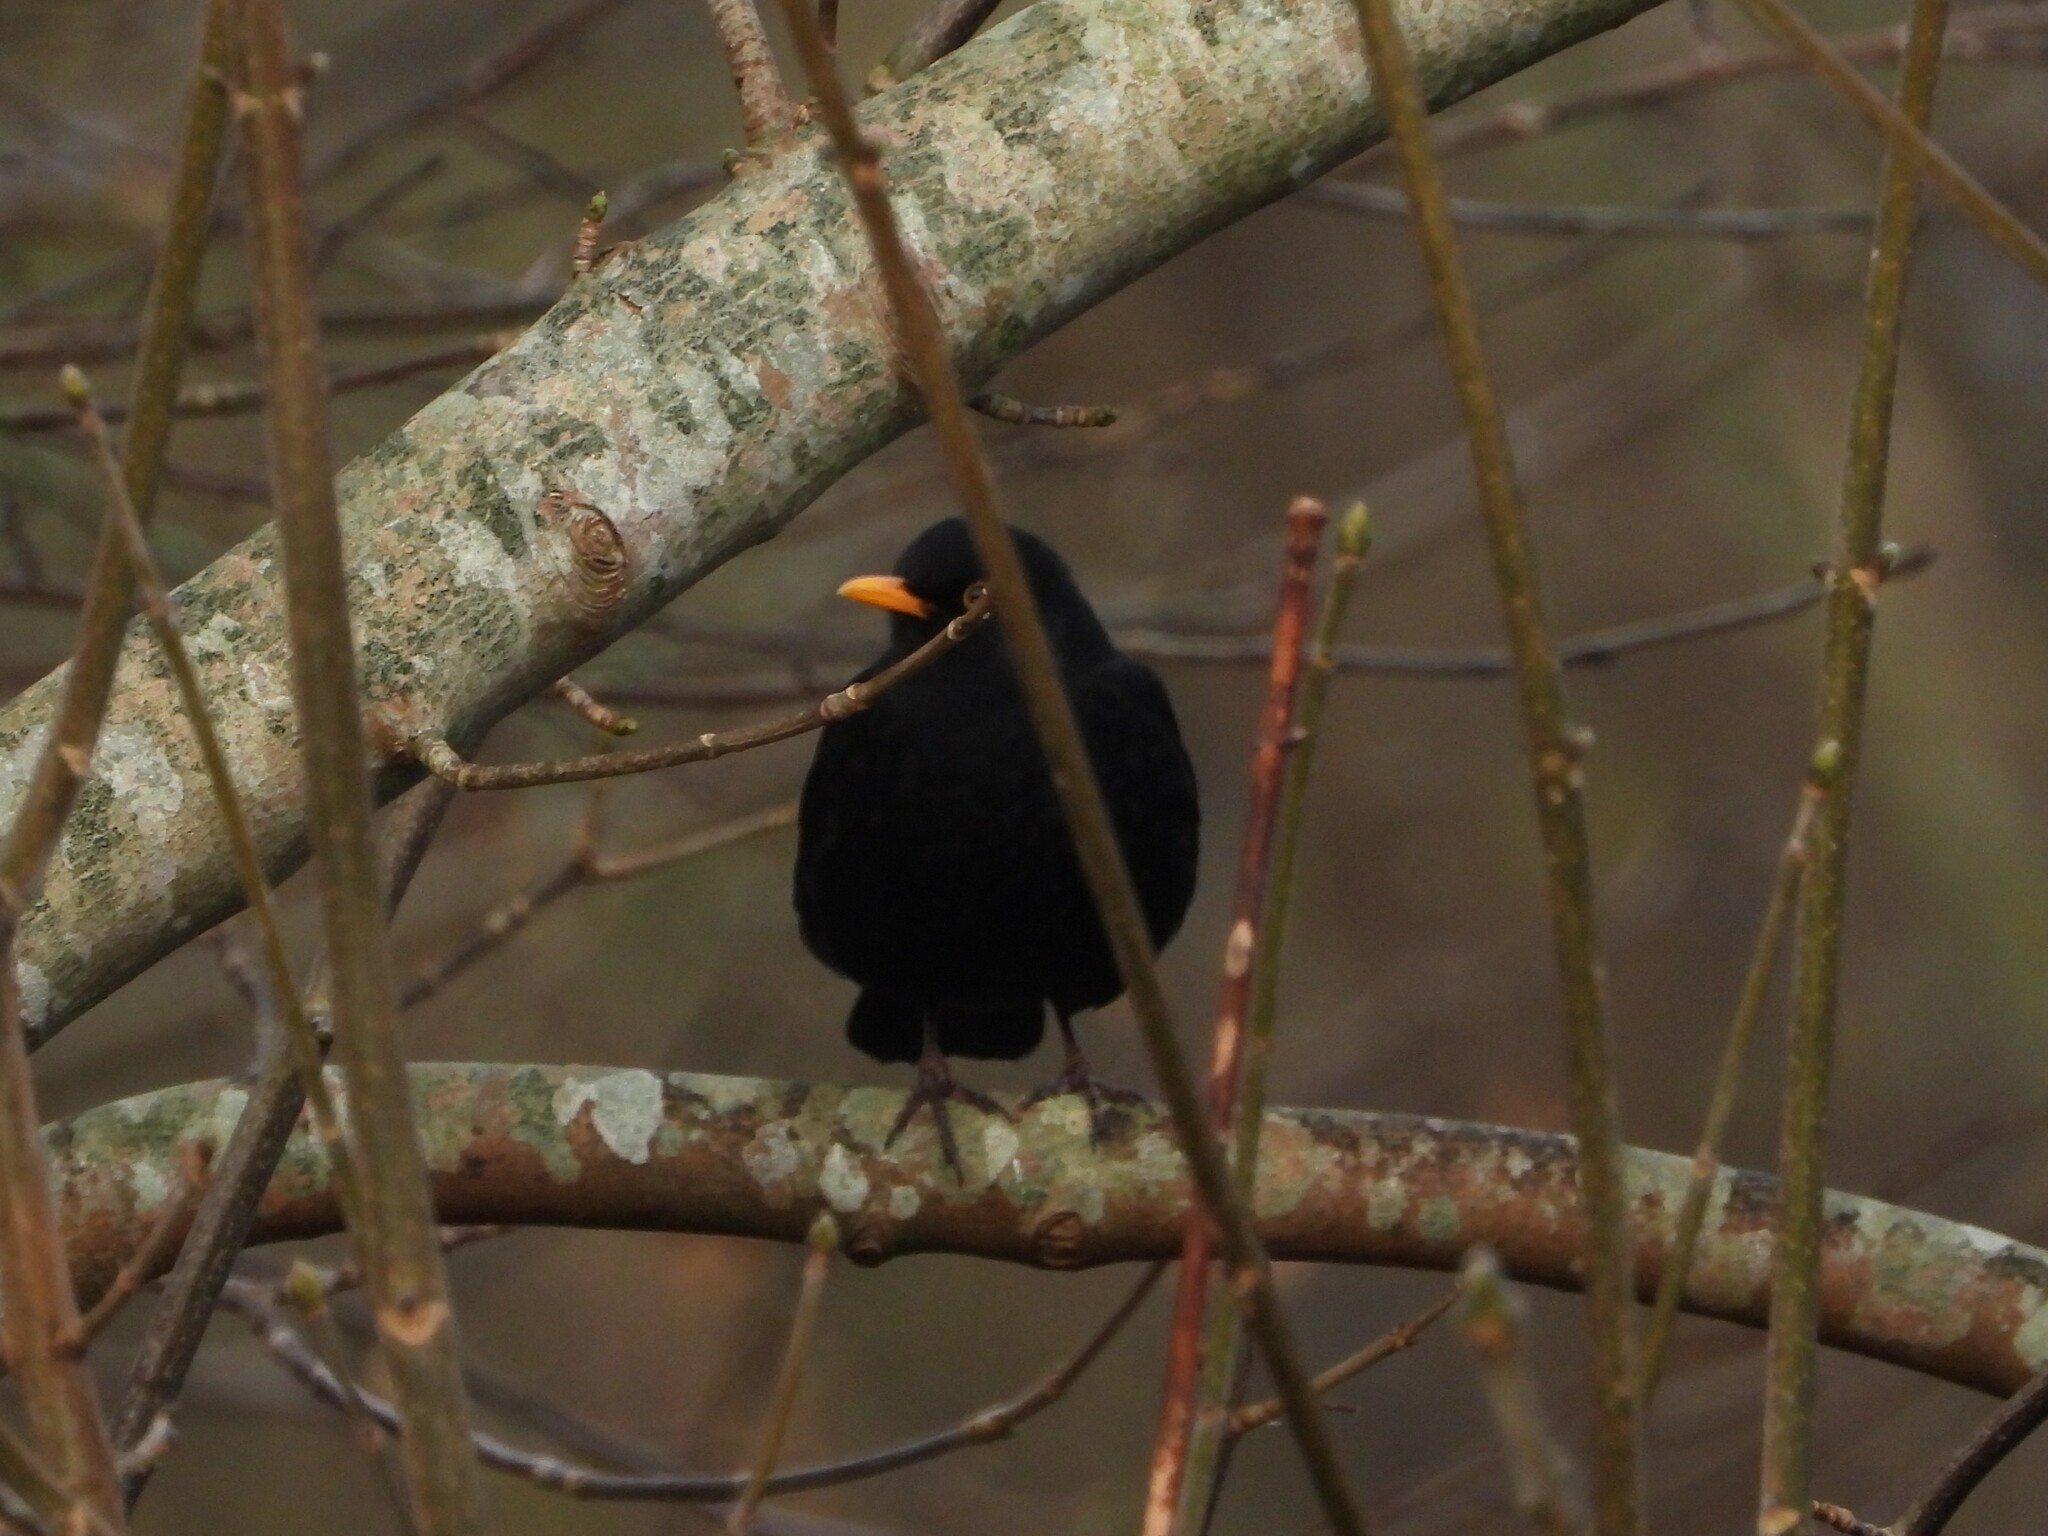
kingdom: Animalia
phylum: Chordata
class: Aves
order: Passeriformes
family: Turdidae
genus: Turdus
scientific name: Turdus merula
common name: Common blackbird
